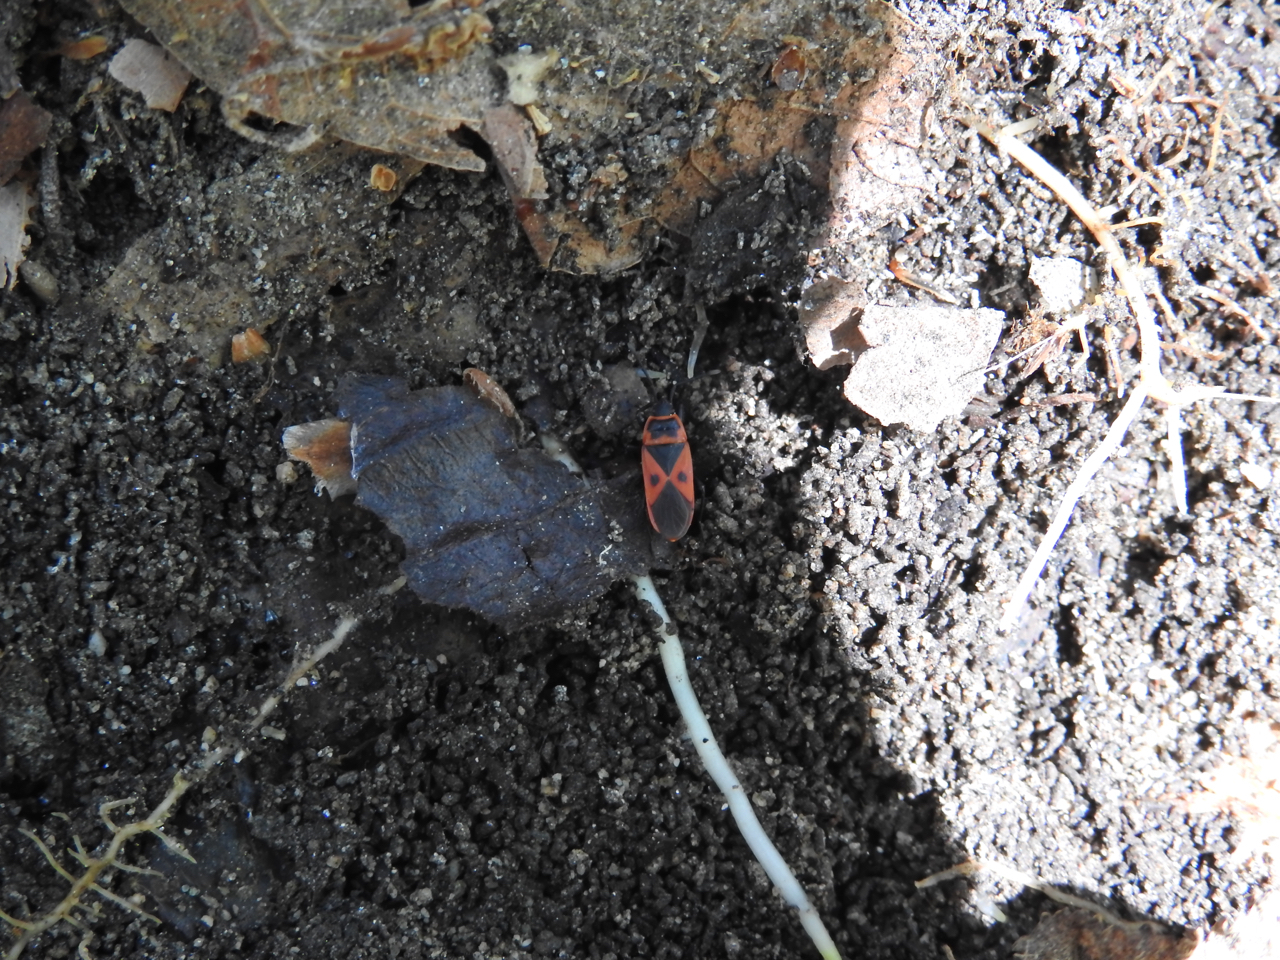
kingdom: Animalia
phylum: Arthropoda
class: Insecta
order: Hemiptera
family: Pyrrhocoridae
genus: Scantius
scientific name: Scantius aegyptius
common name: Red bug
